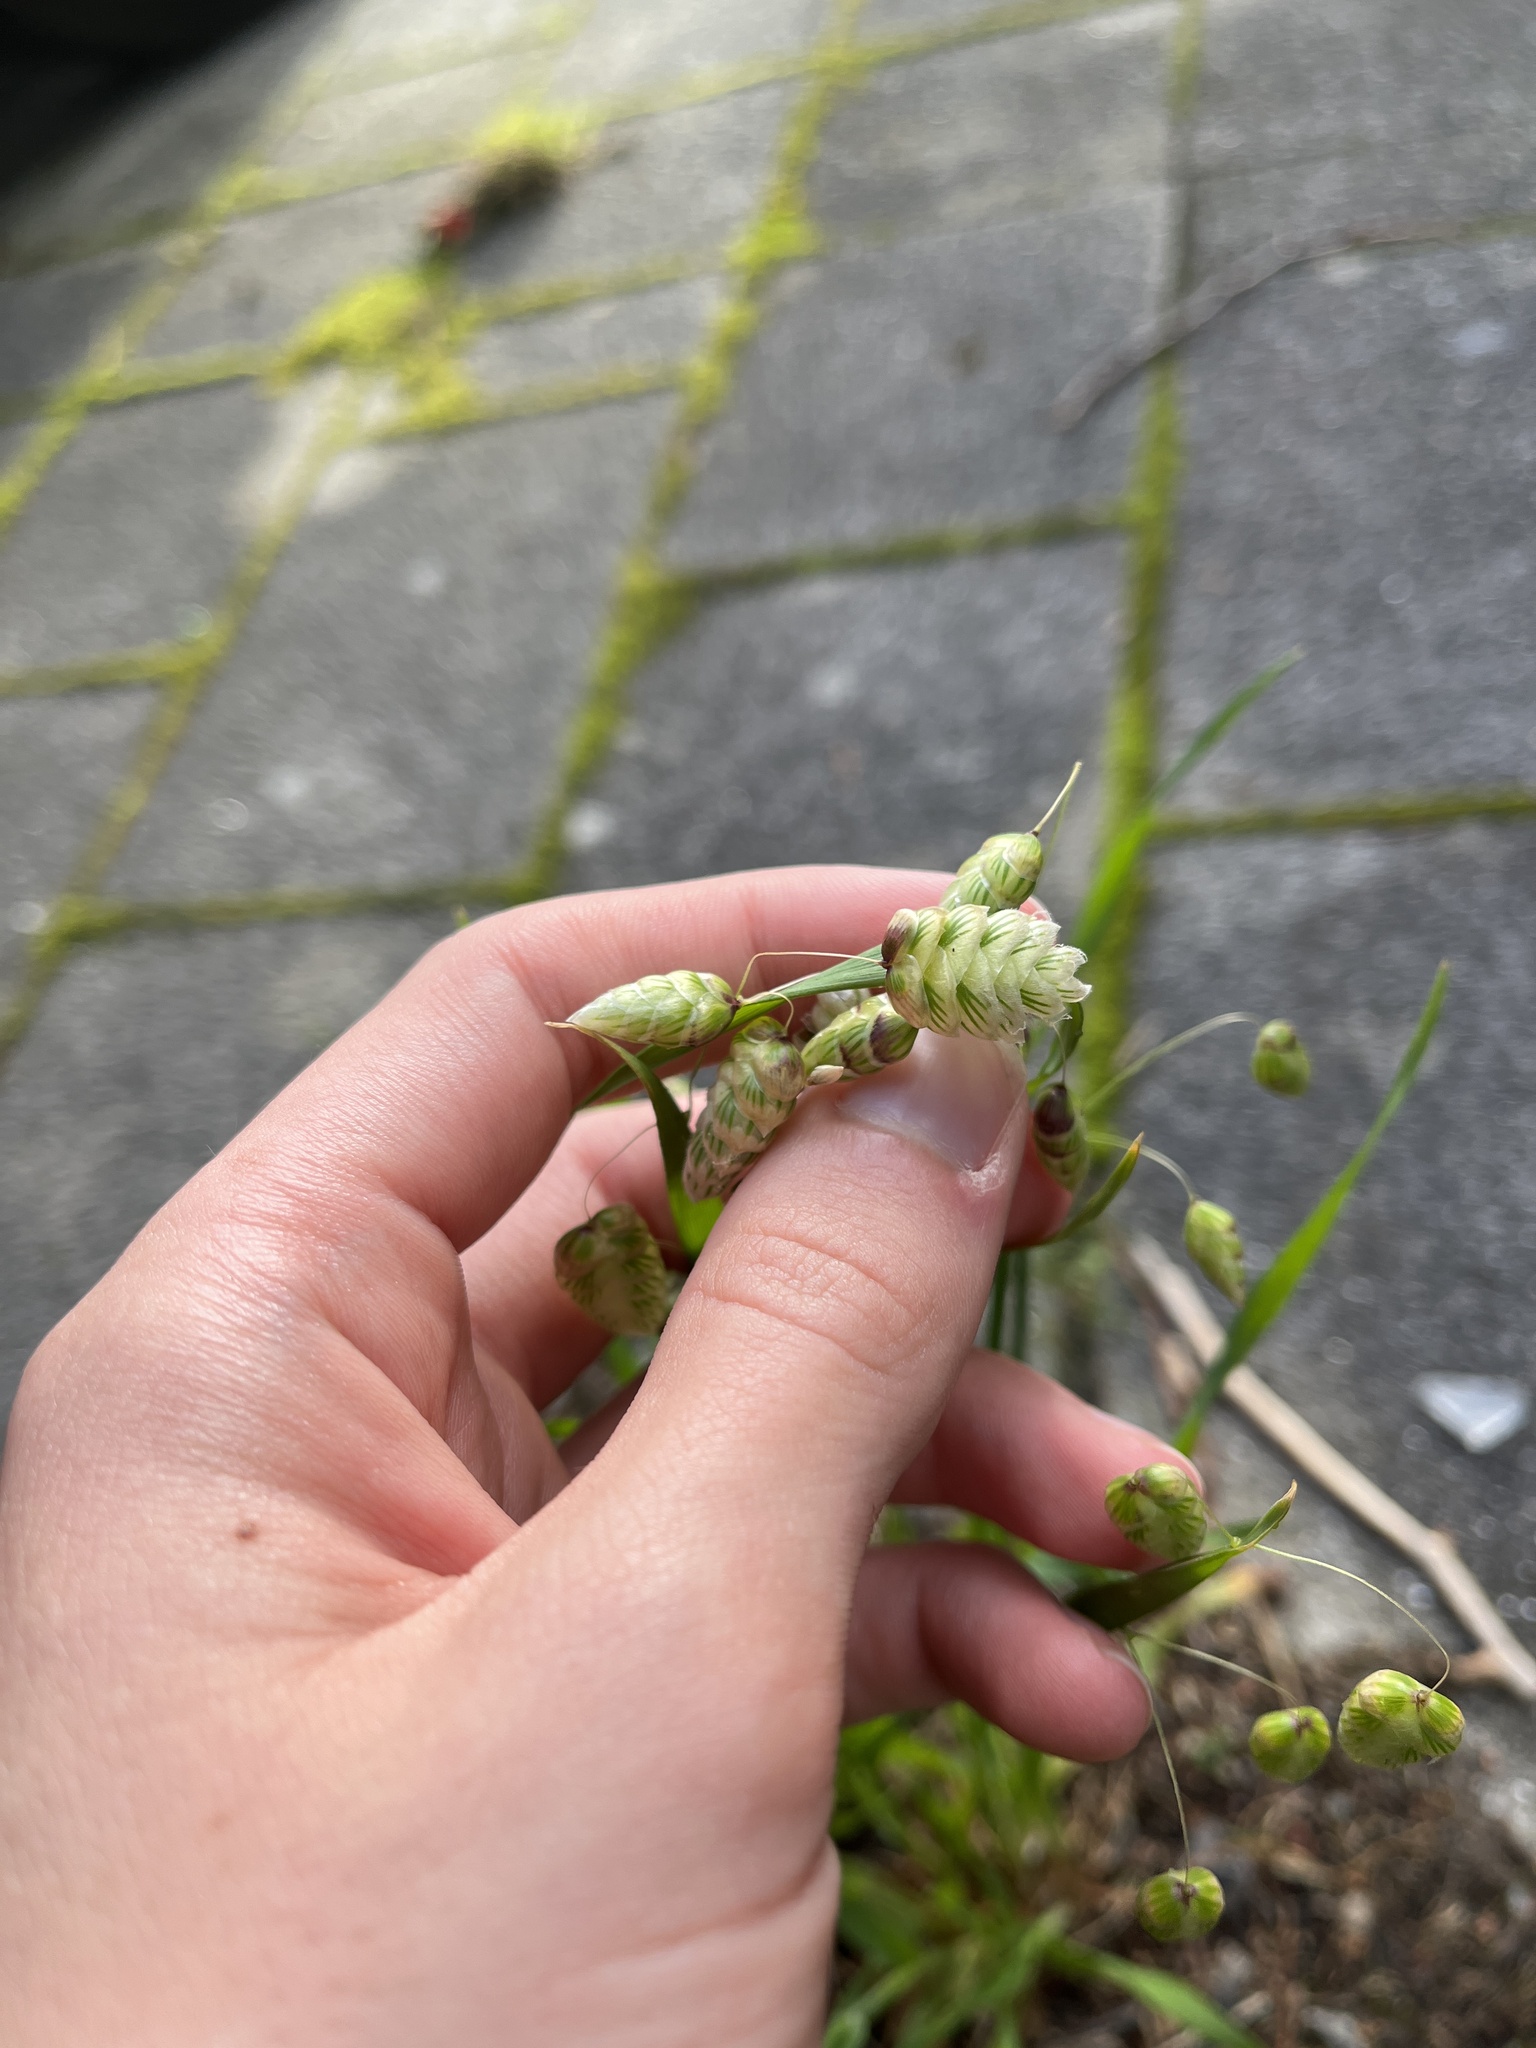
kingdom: Plantae
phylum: Tracheophyta
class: Liliopsida
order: Poales
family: Poaceae
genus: Briza
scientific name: Briza maxima
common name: Big quakinggrass
